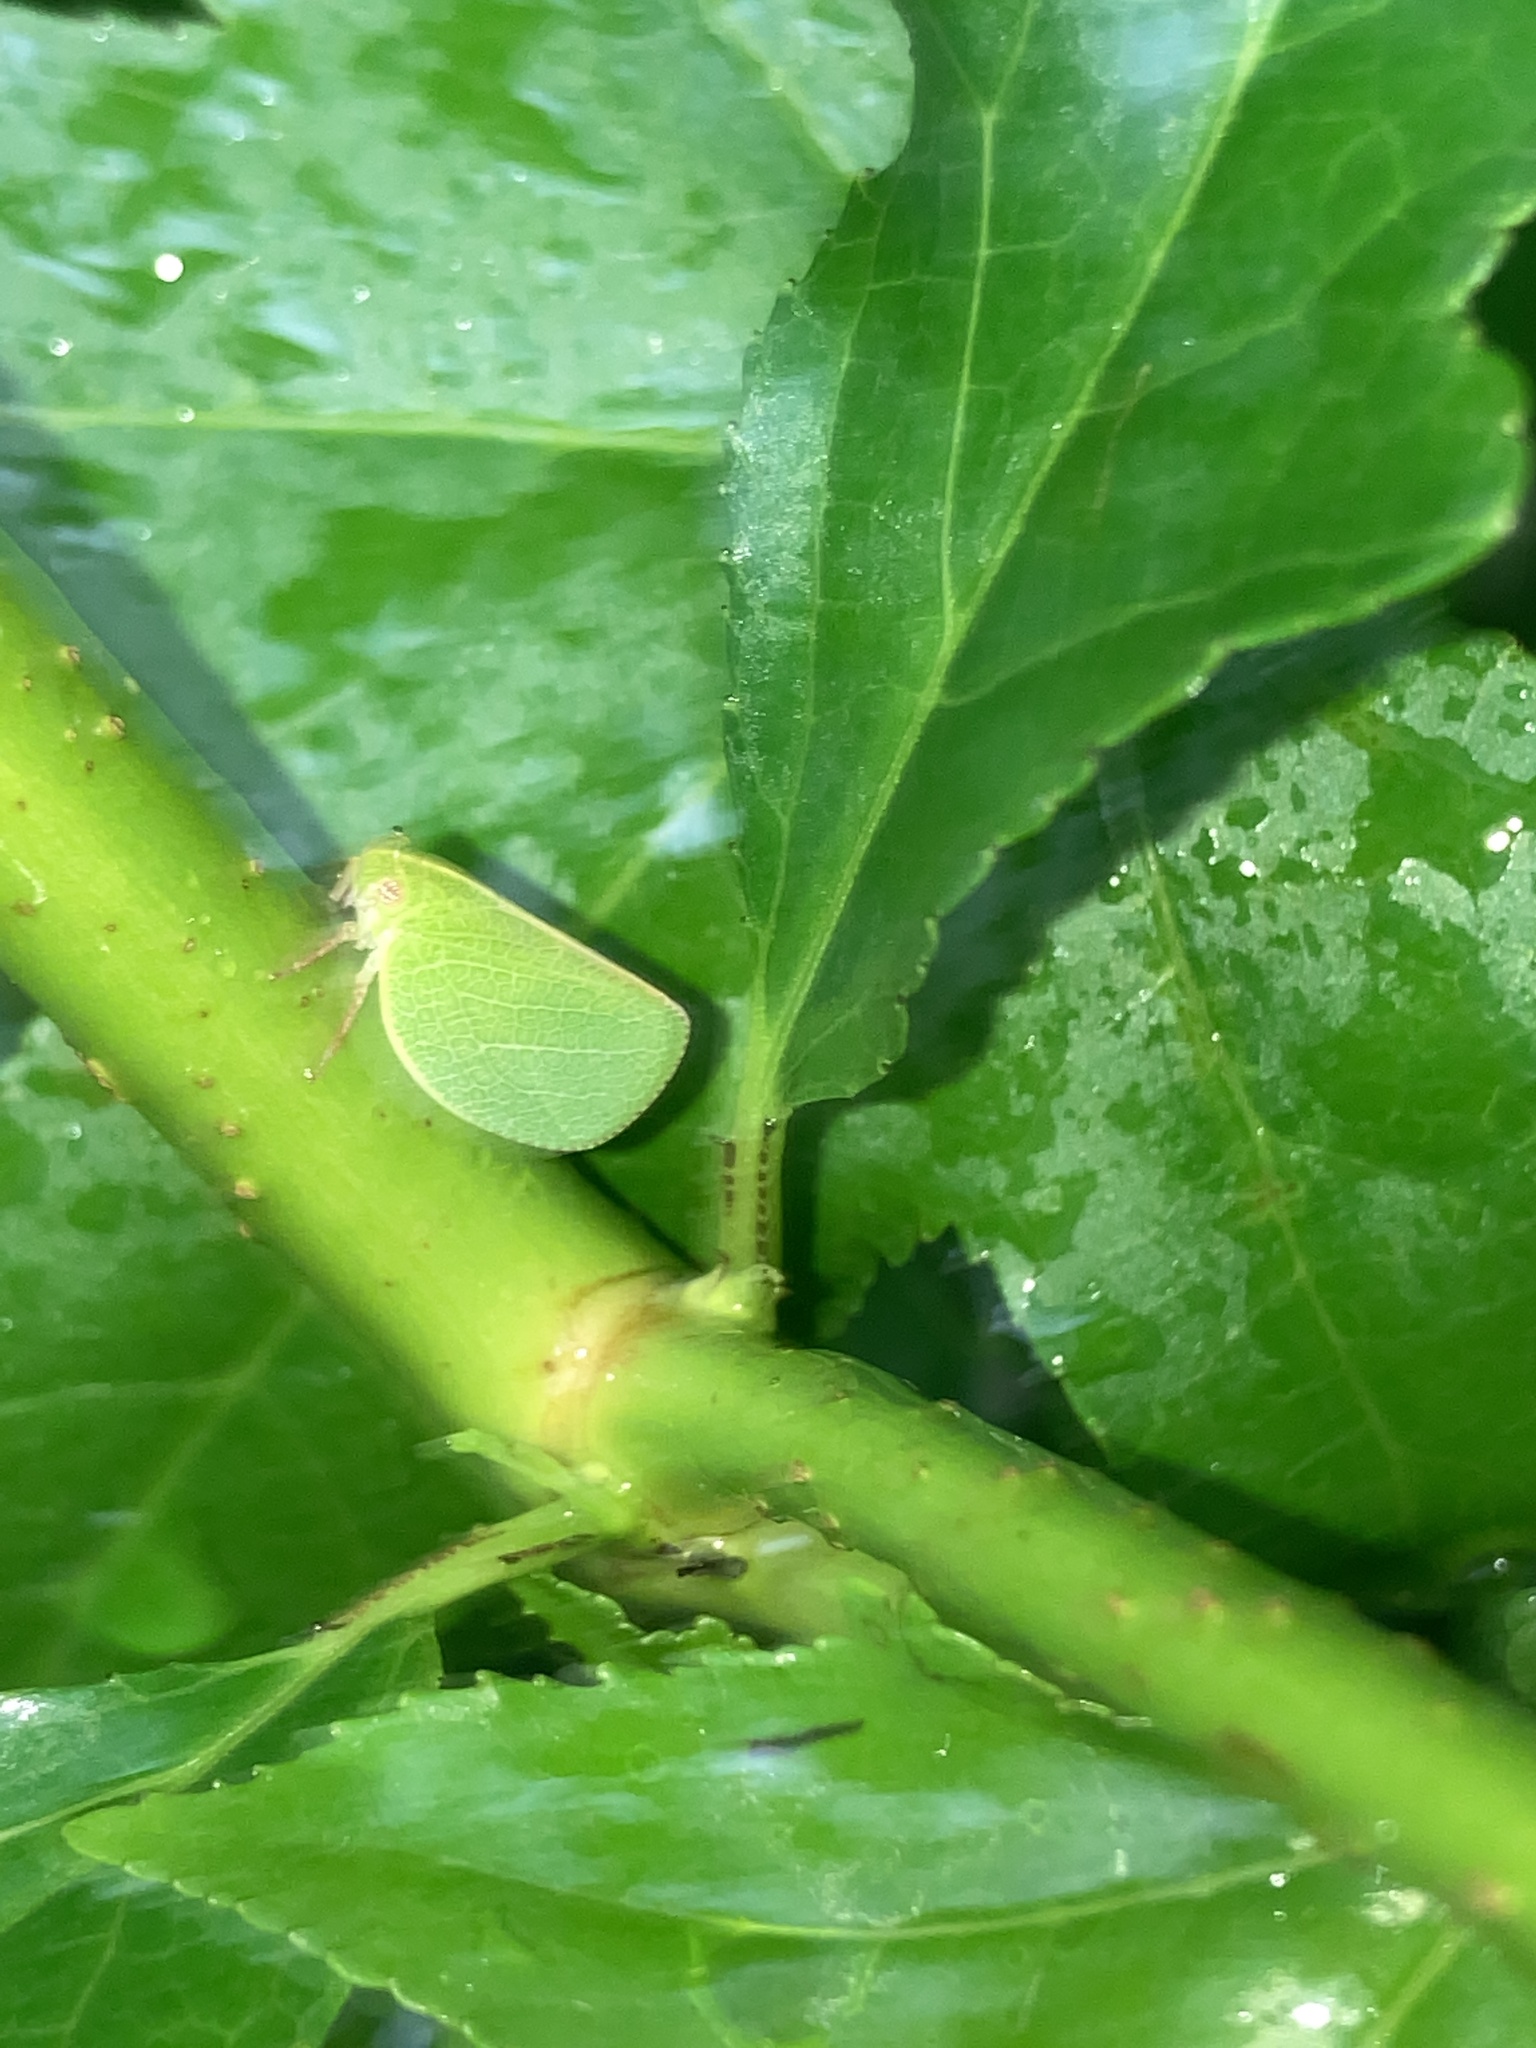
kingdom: Animalia
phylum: Arthropoda
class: Insecta
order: Hemiptera
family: Acanaloniidae
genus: Acanalonia
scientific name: Acanalonia servillei
